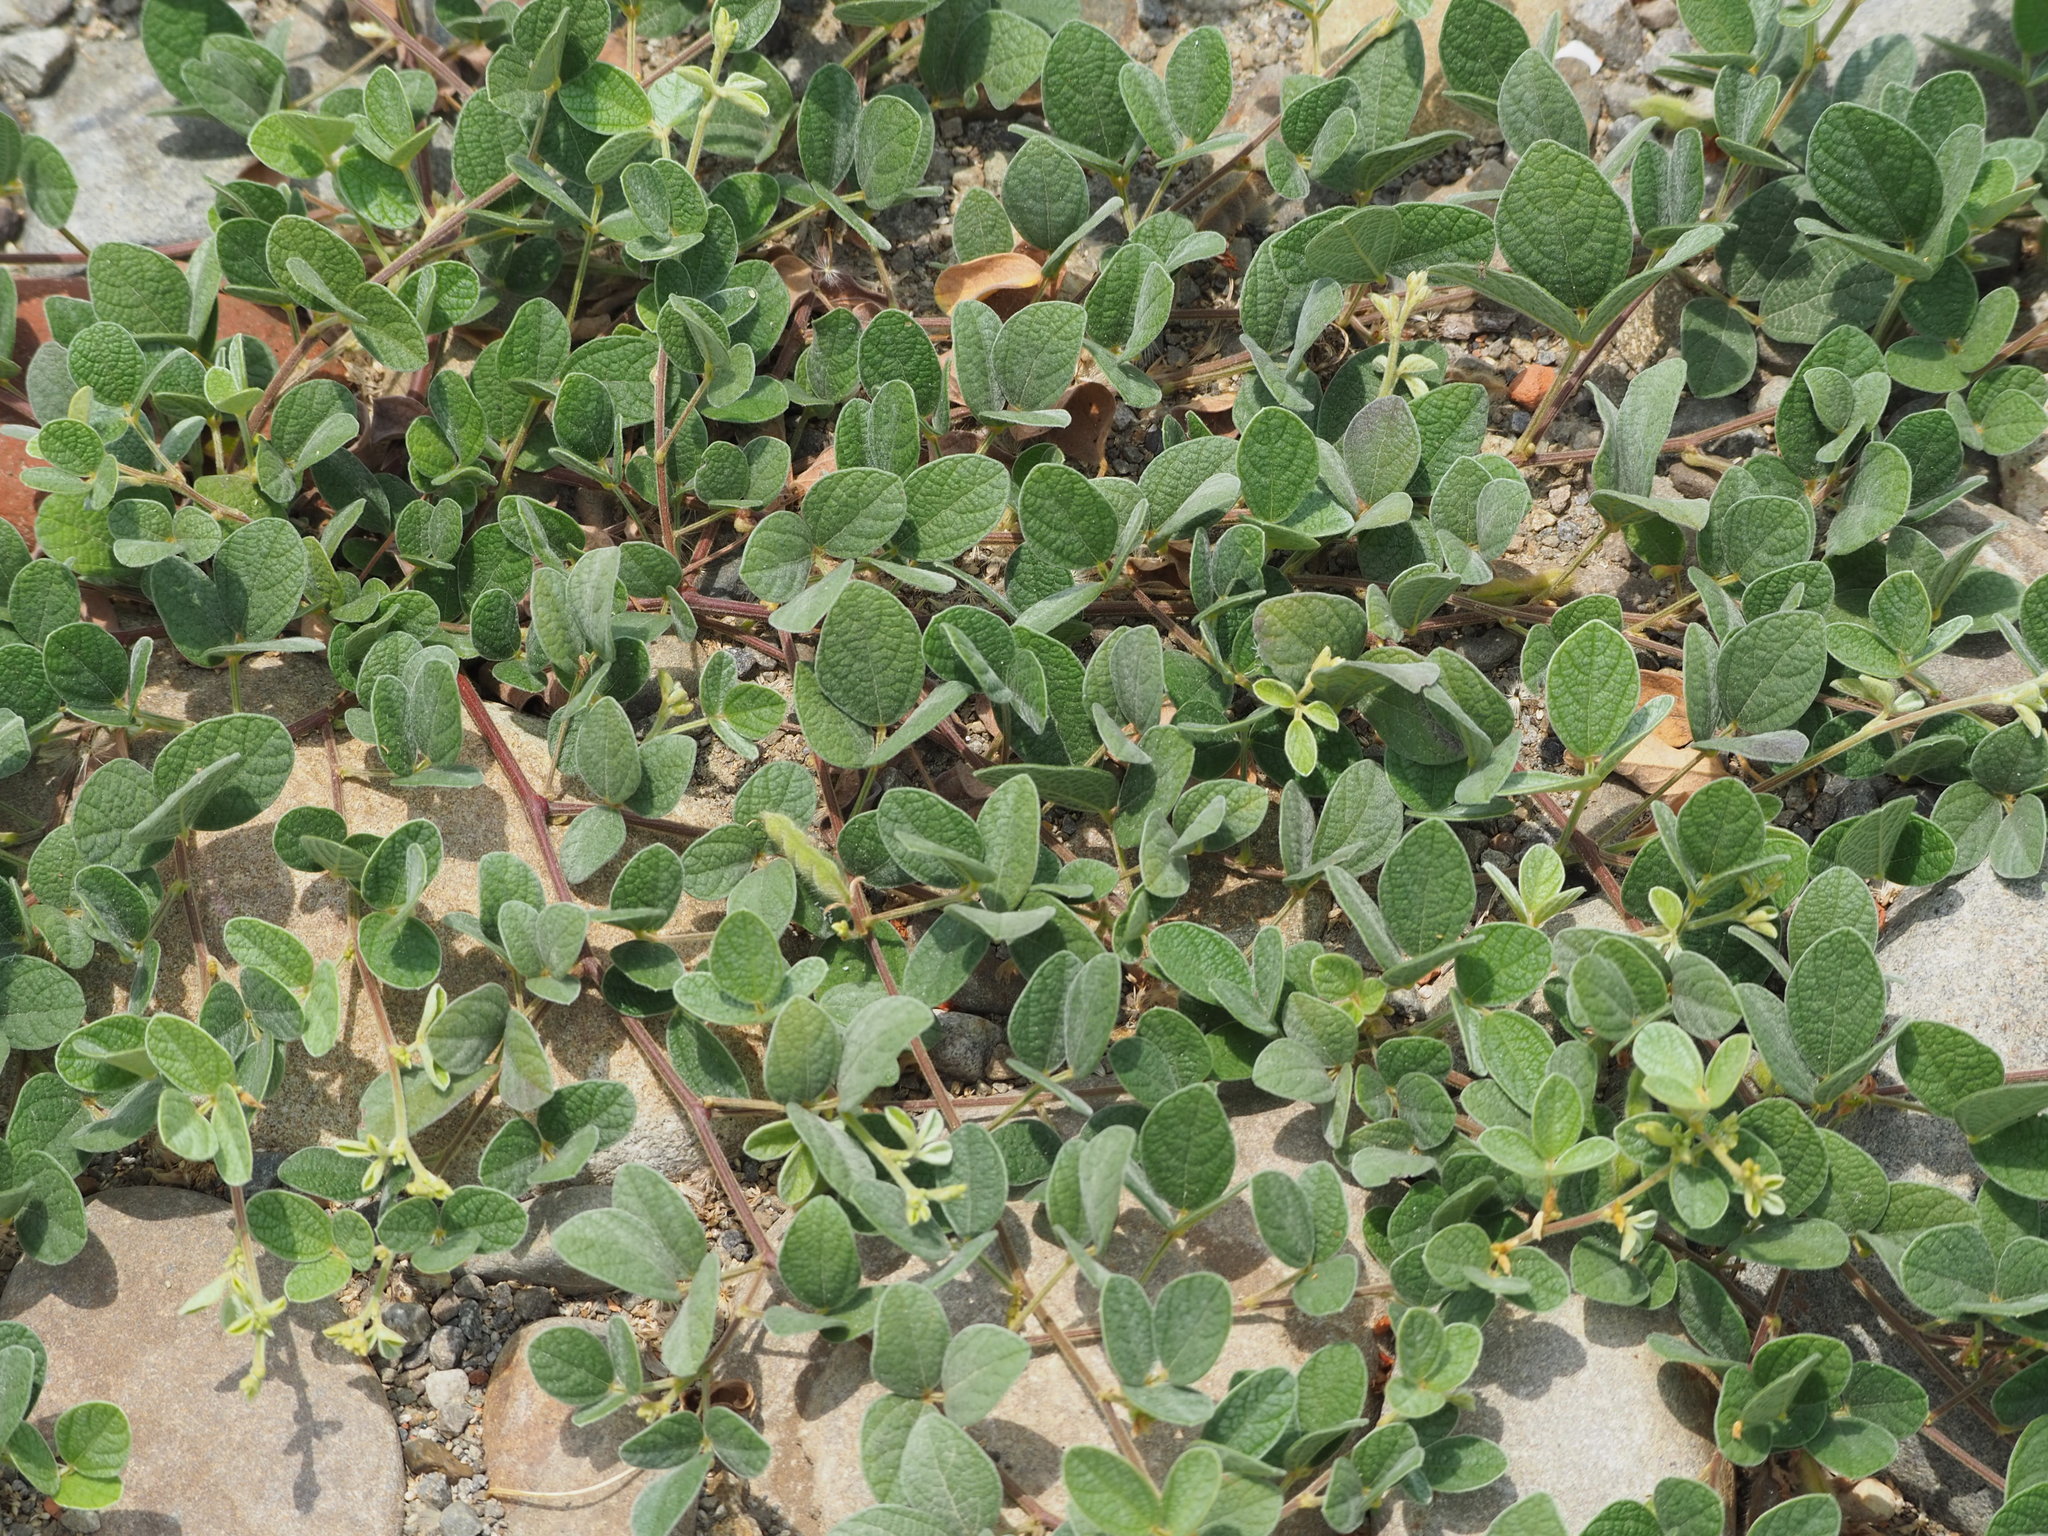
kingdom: Plantae
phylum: Tracheophyta
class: Magnoliopsida
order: Fabales
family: Fabaceae
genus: Cajanus
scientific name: Cajanus scarabaeoides
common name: Showy pigeonpea
